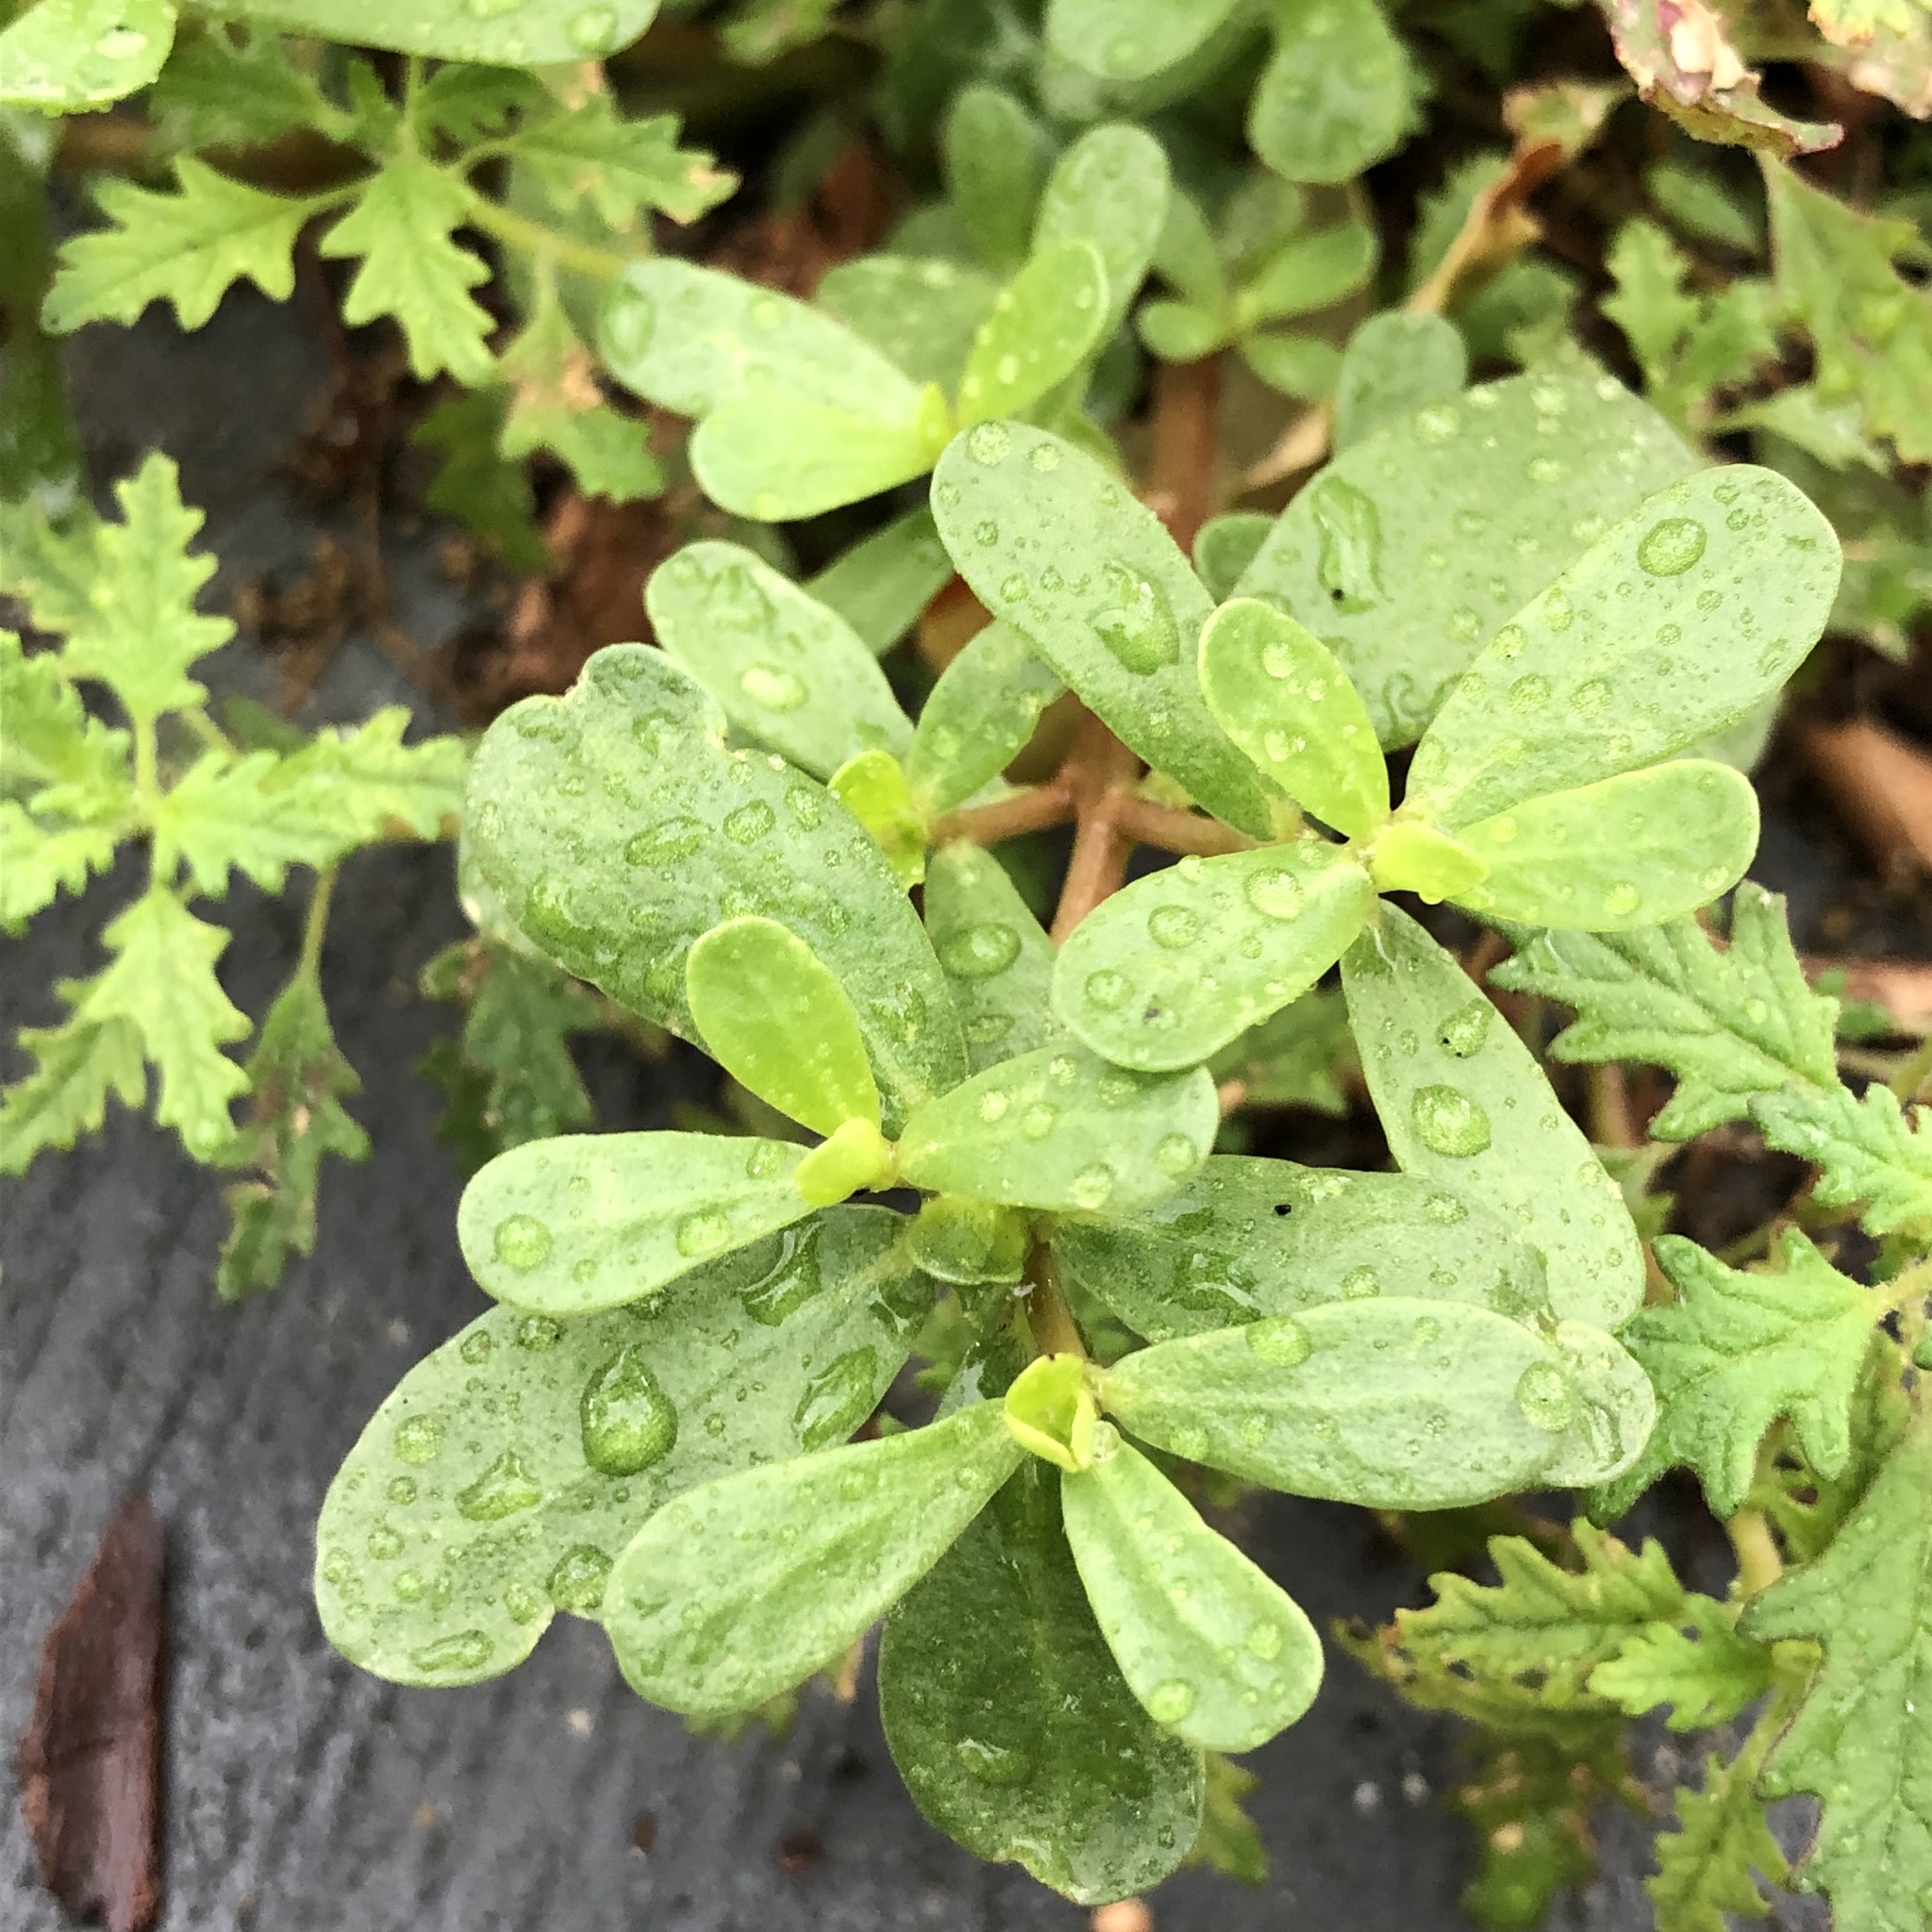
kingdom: Plantae
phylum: Tracheophyta
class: Magnoliopsida
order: Caryophyllales
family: Portulacaceae
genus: Portulaca
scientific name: Portulaca oleracea
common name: Common purslane
